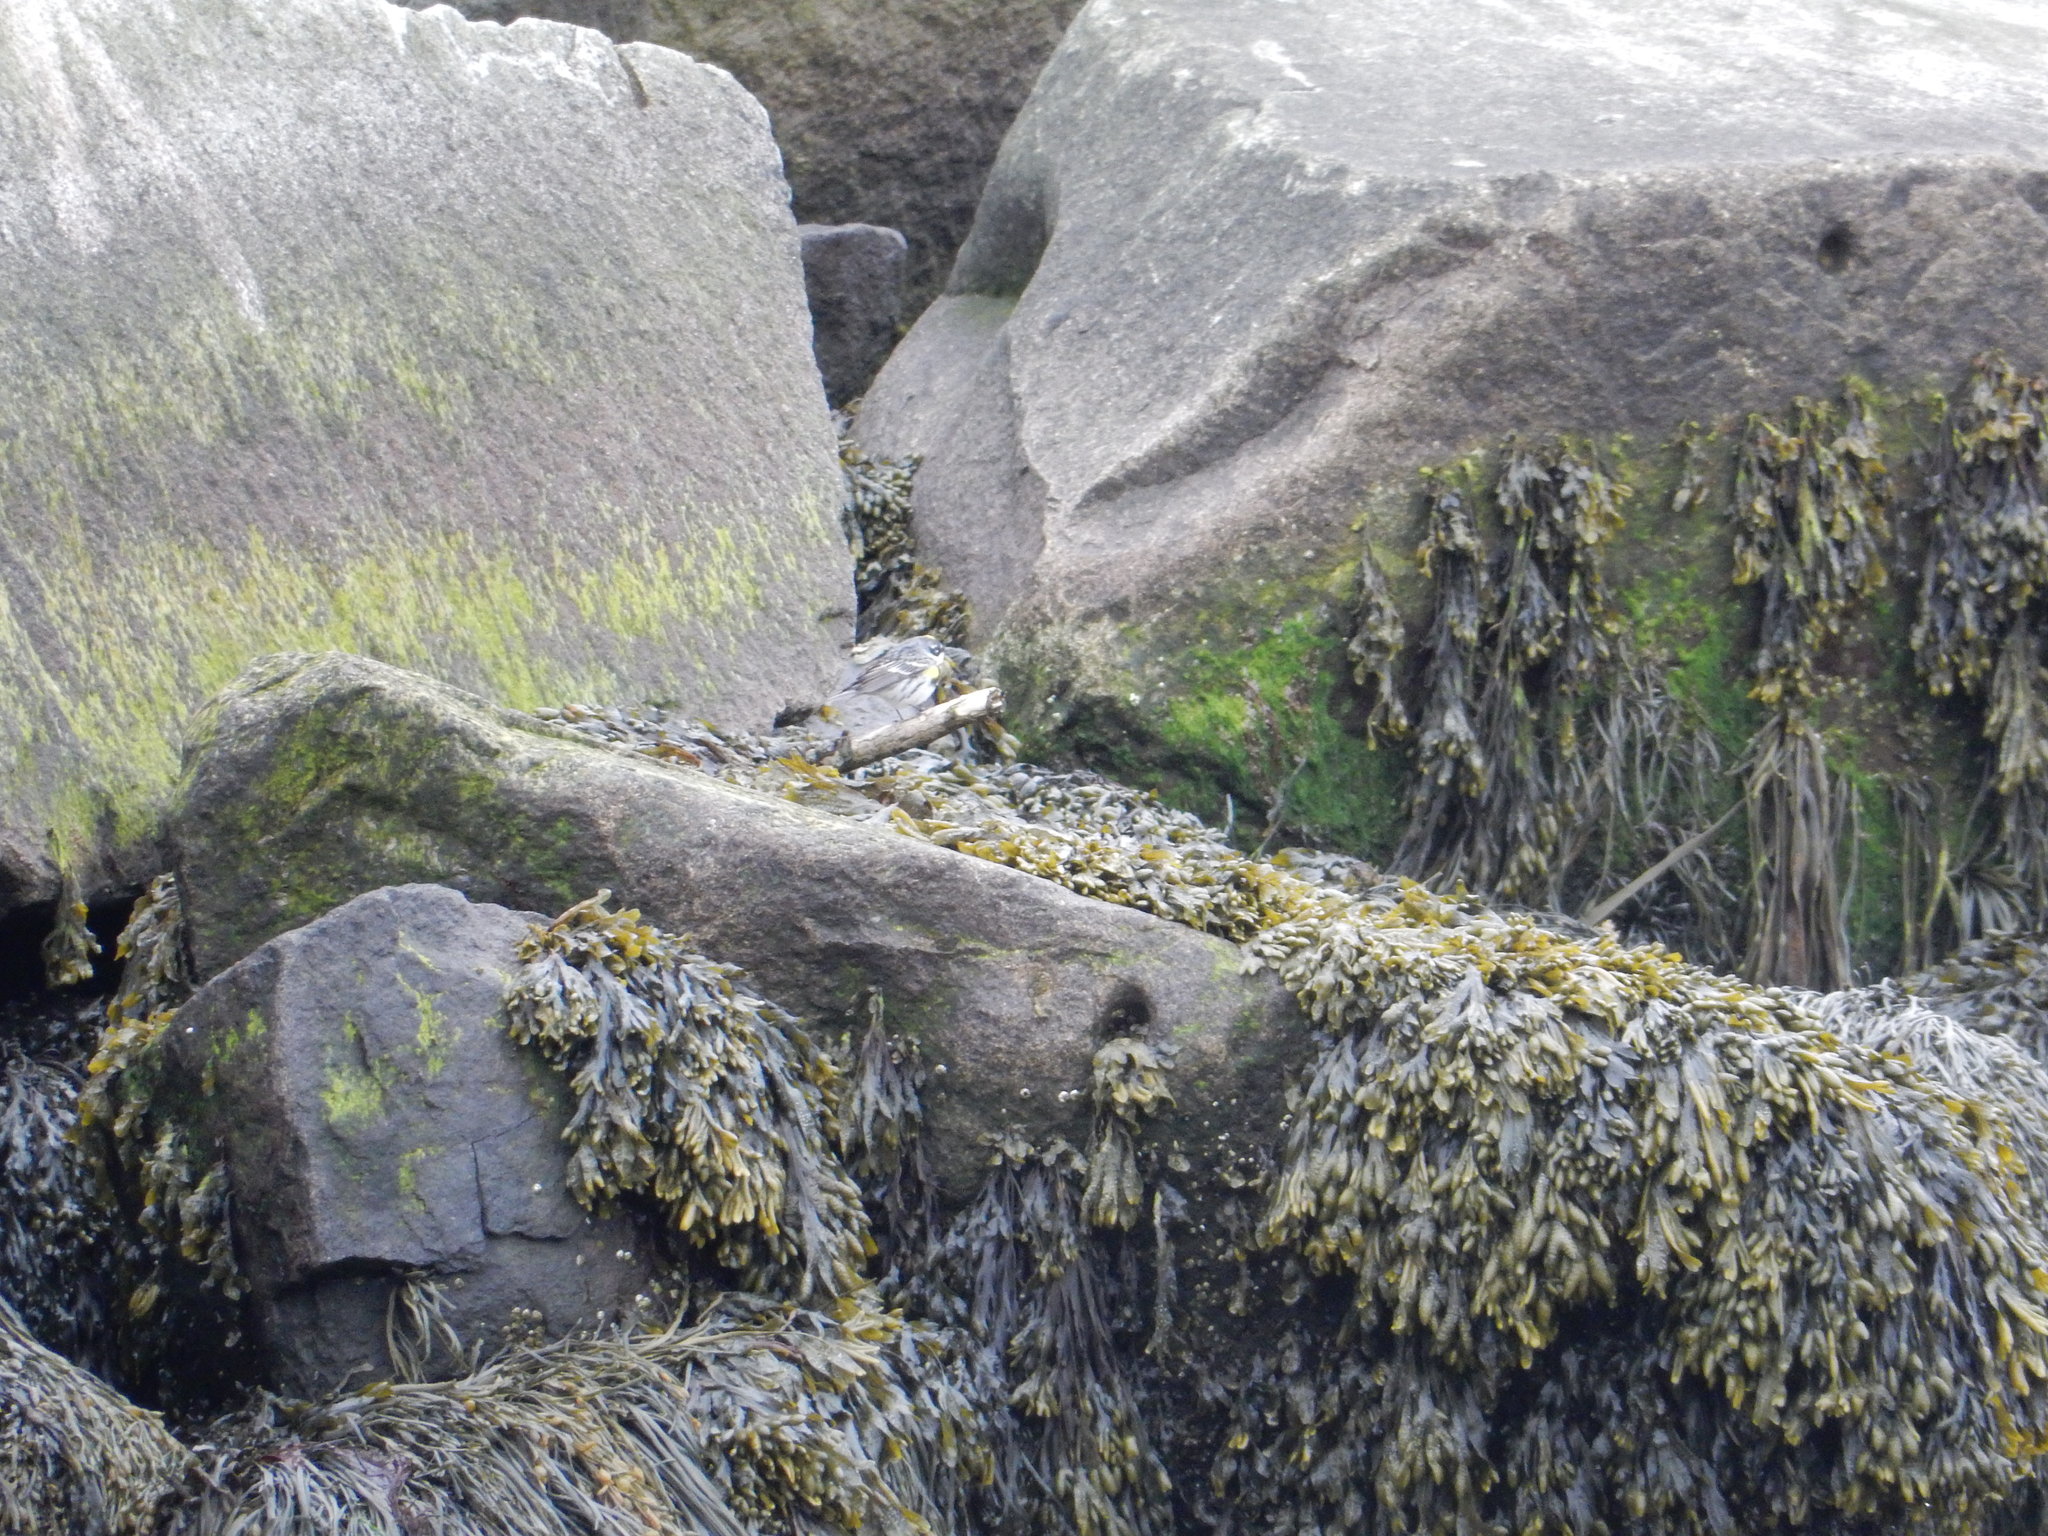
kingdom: Animalia
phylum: Chordata
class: Aves
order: Passeriformes
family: Parulidae
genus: Setophaga
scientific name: Setophaga coronata
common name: Myrtle warbler
